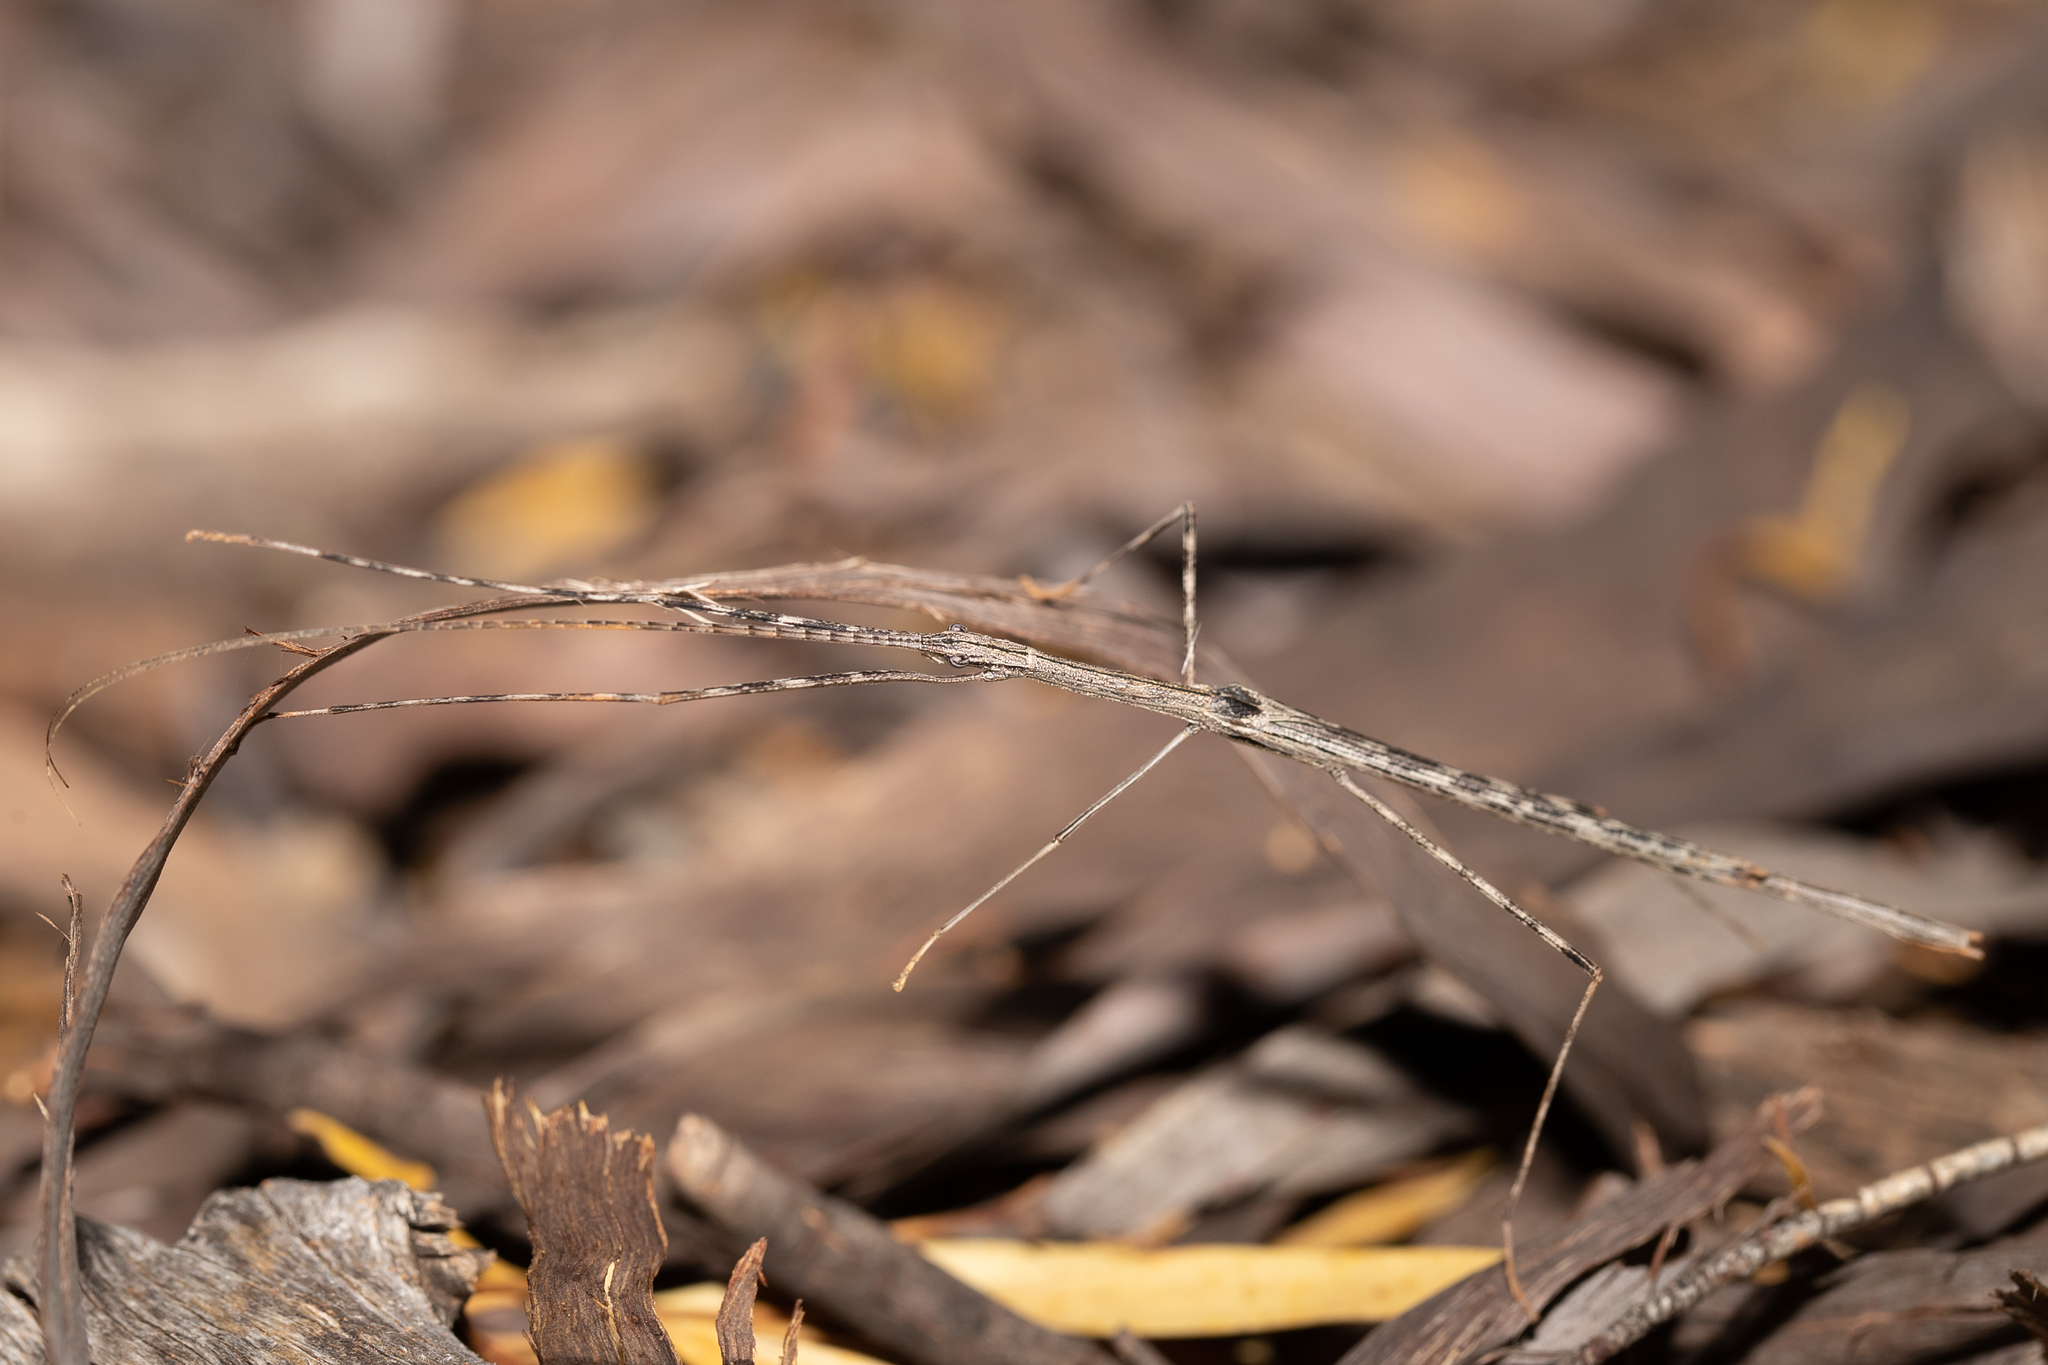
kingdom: Animalia
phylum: Arthropoda
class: Insecta
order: Phasmida
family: Lonchodidae
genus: Sipyloidea
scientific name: Sipyloidea whitei
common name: White's winged stick-insect
